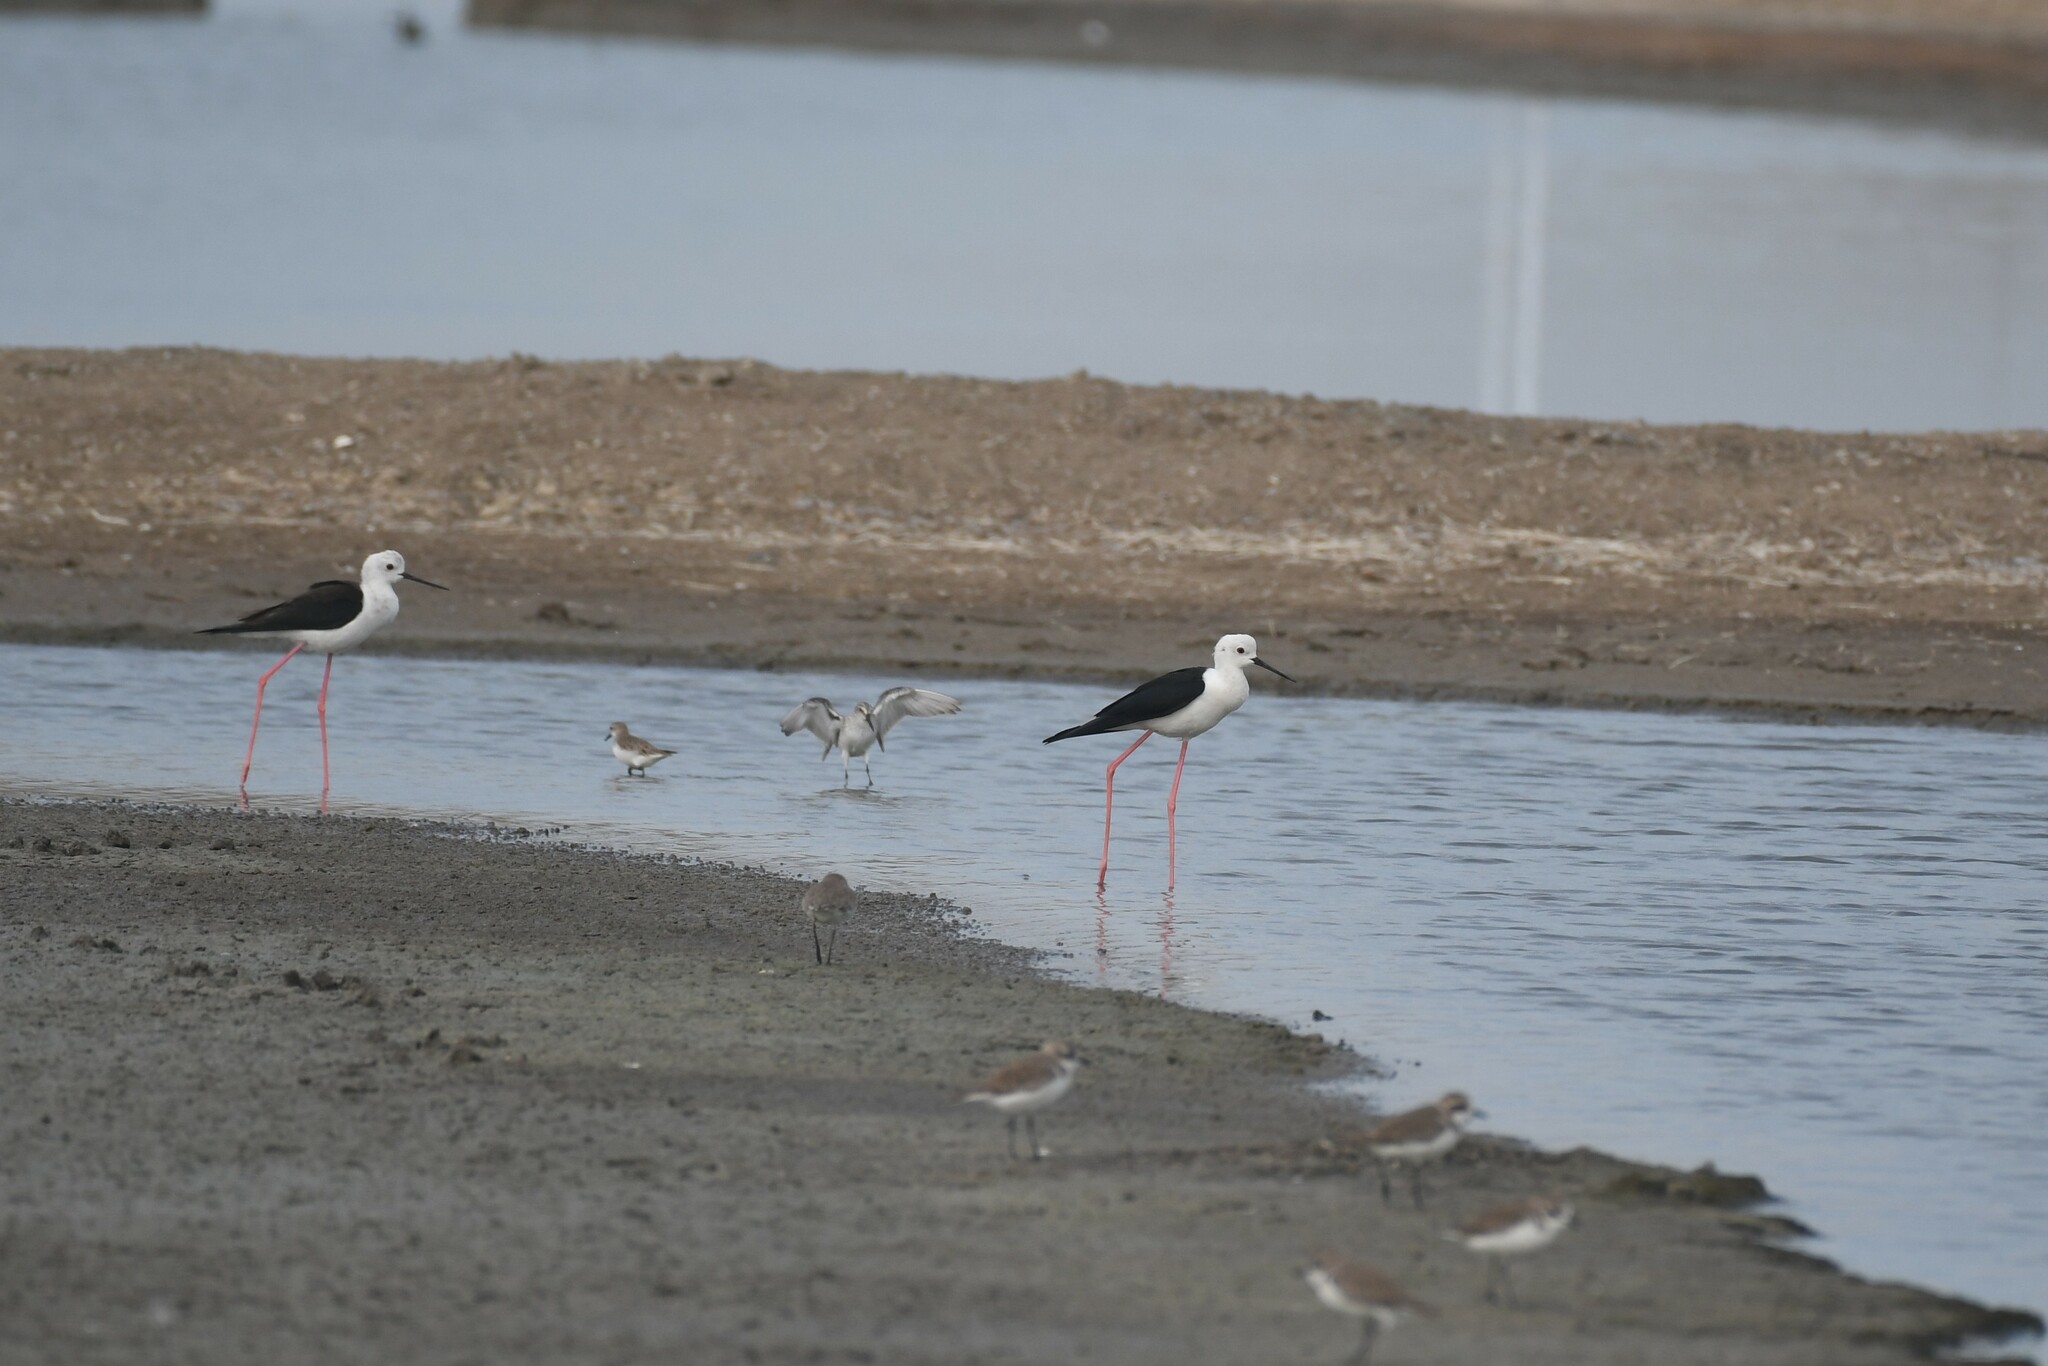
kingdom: Animalia
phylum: Chordata
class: Aves
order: Charadriiformes
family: Recurvirostridae
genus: Himantopus
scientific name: Himantopus himantopus
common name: Black-winged stilt
